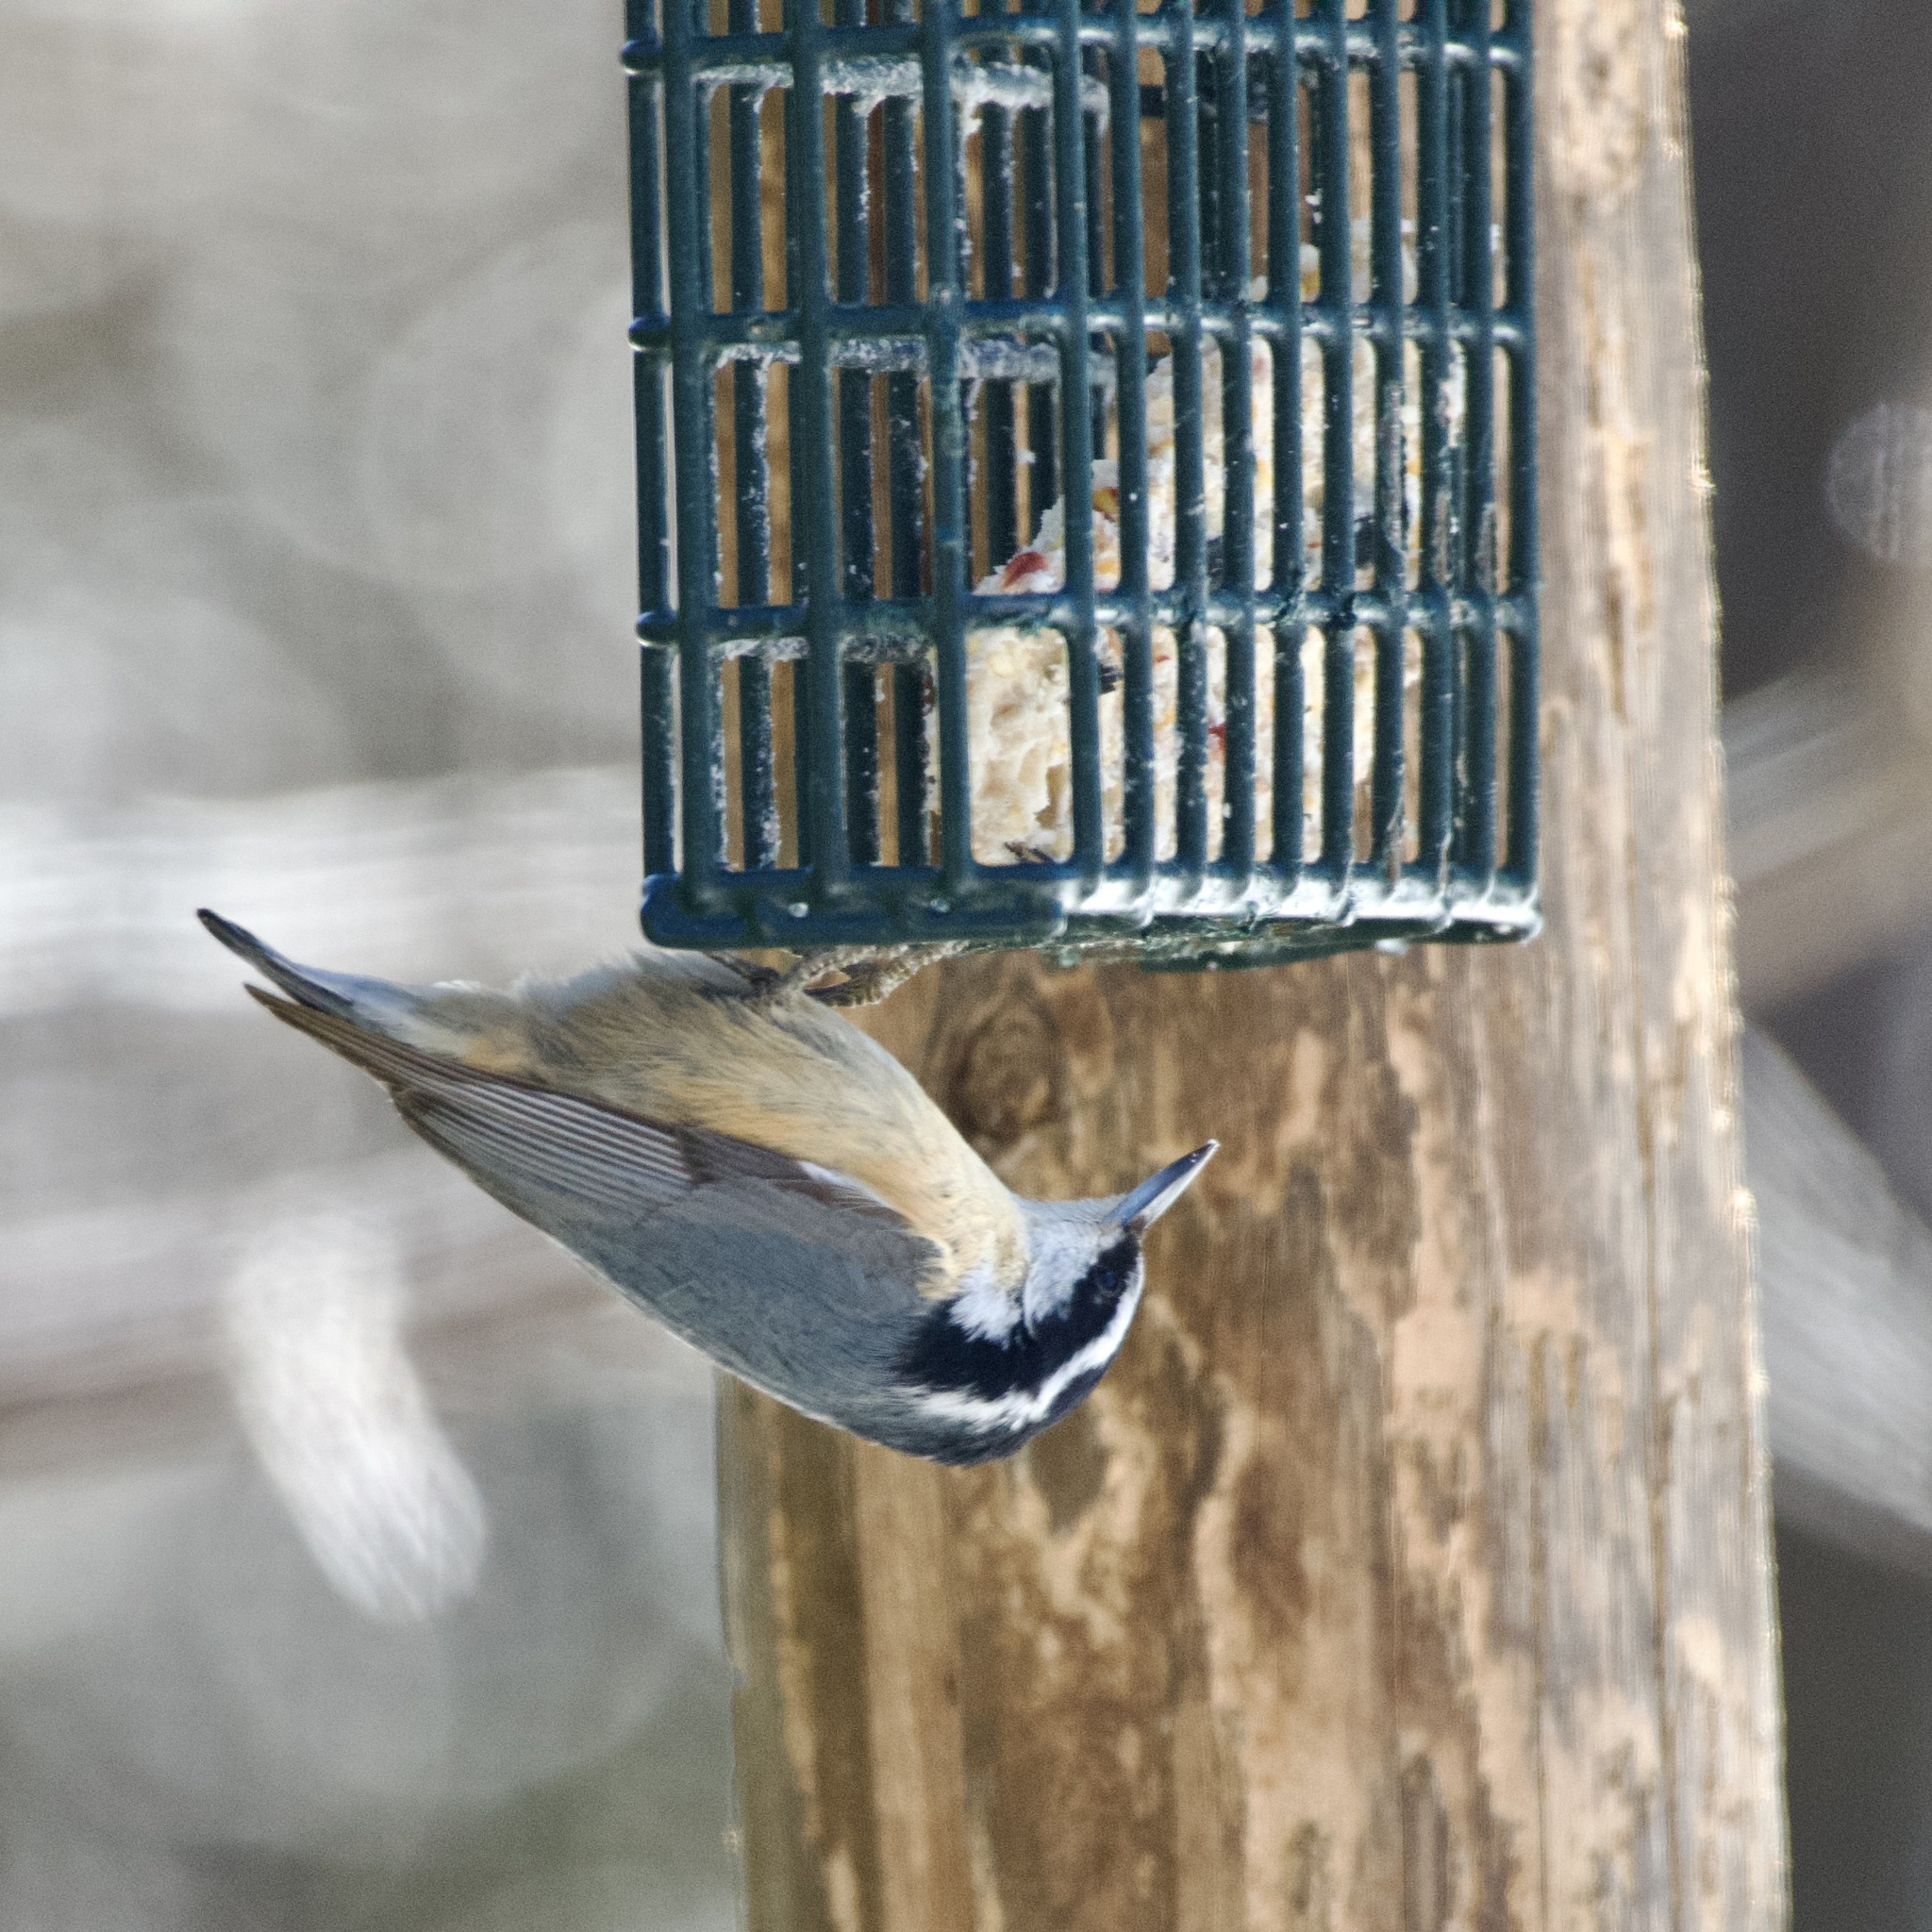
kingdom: Animalia
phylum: Chordata
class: Aves
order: Passeriformes
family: Sittidae
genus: Sitta
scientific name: Sitta canadensis
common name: Red-breasted nuthatch
